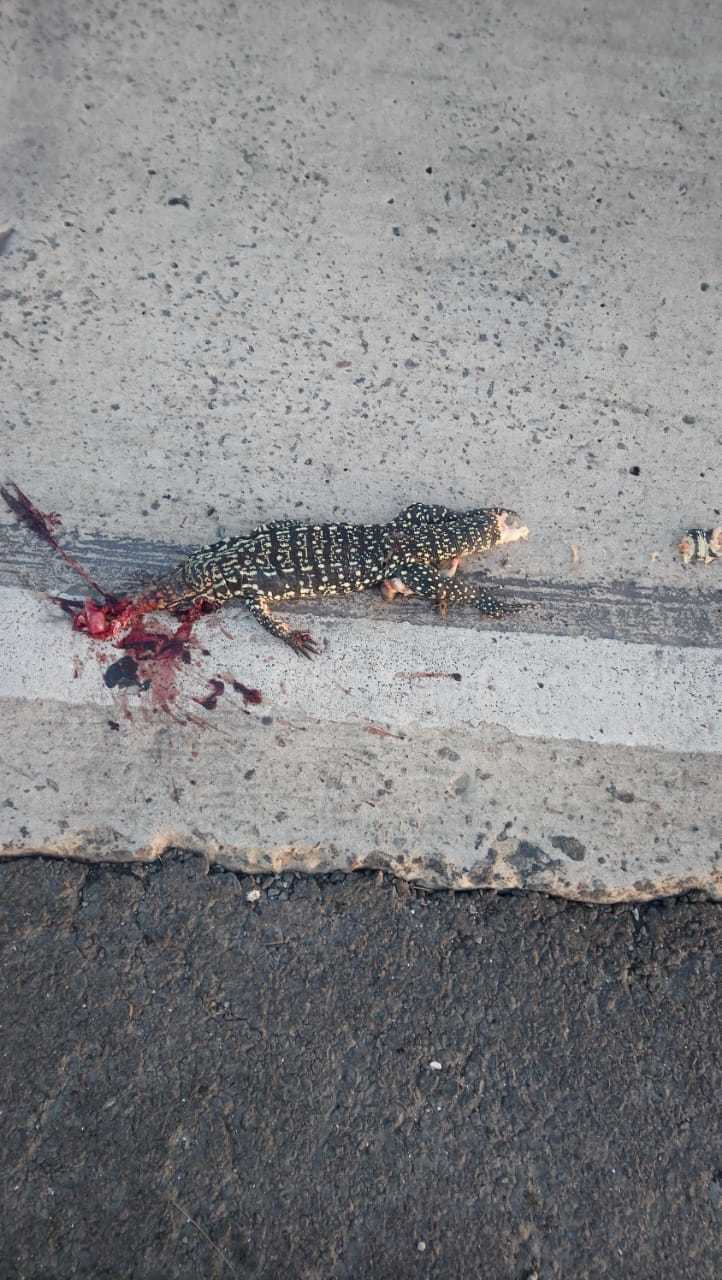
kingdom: Animalia
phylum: Chordata
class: Squamata
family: Teiidae
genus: Salvator
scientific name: Salvator merianae
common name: Argentine black and white tegu
